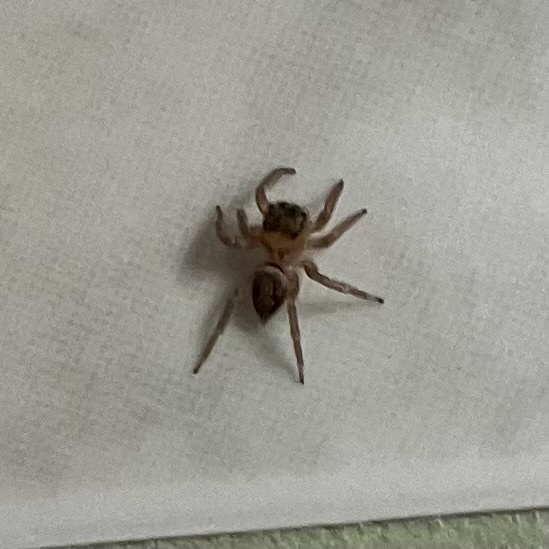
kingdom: Animalia
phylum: Arthropoda
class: Arachnida
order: Araneae
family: Salticidae
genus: Hasarius
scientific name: Hasarius adansoni
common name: Jumping spider
